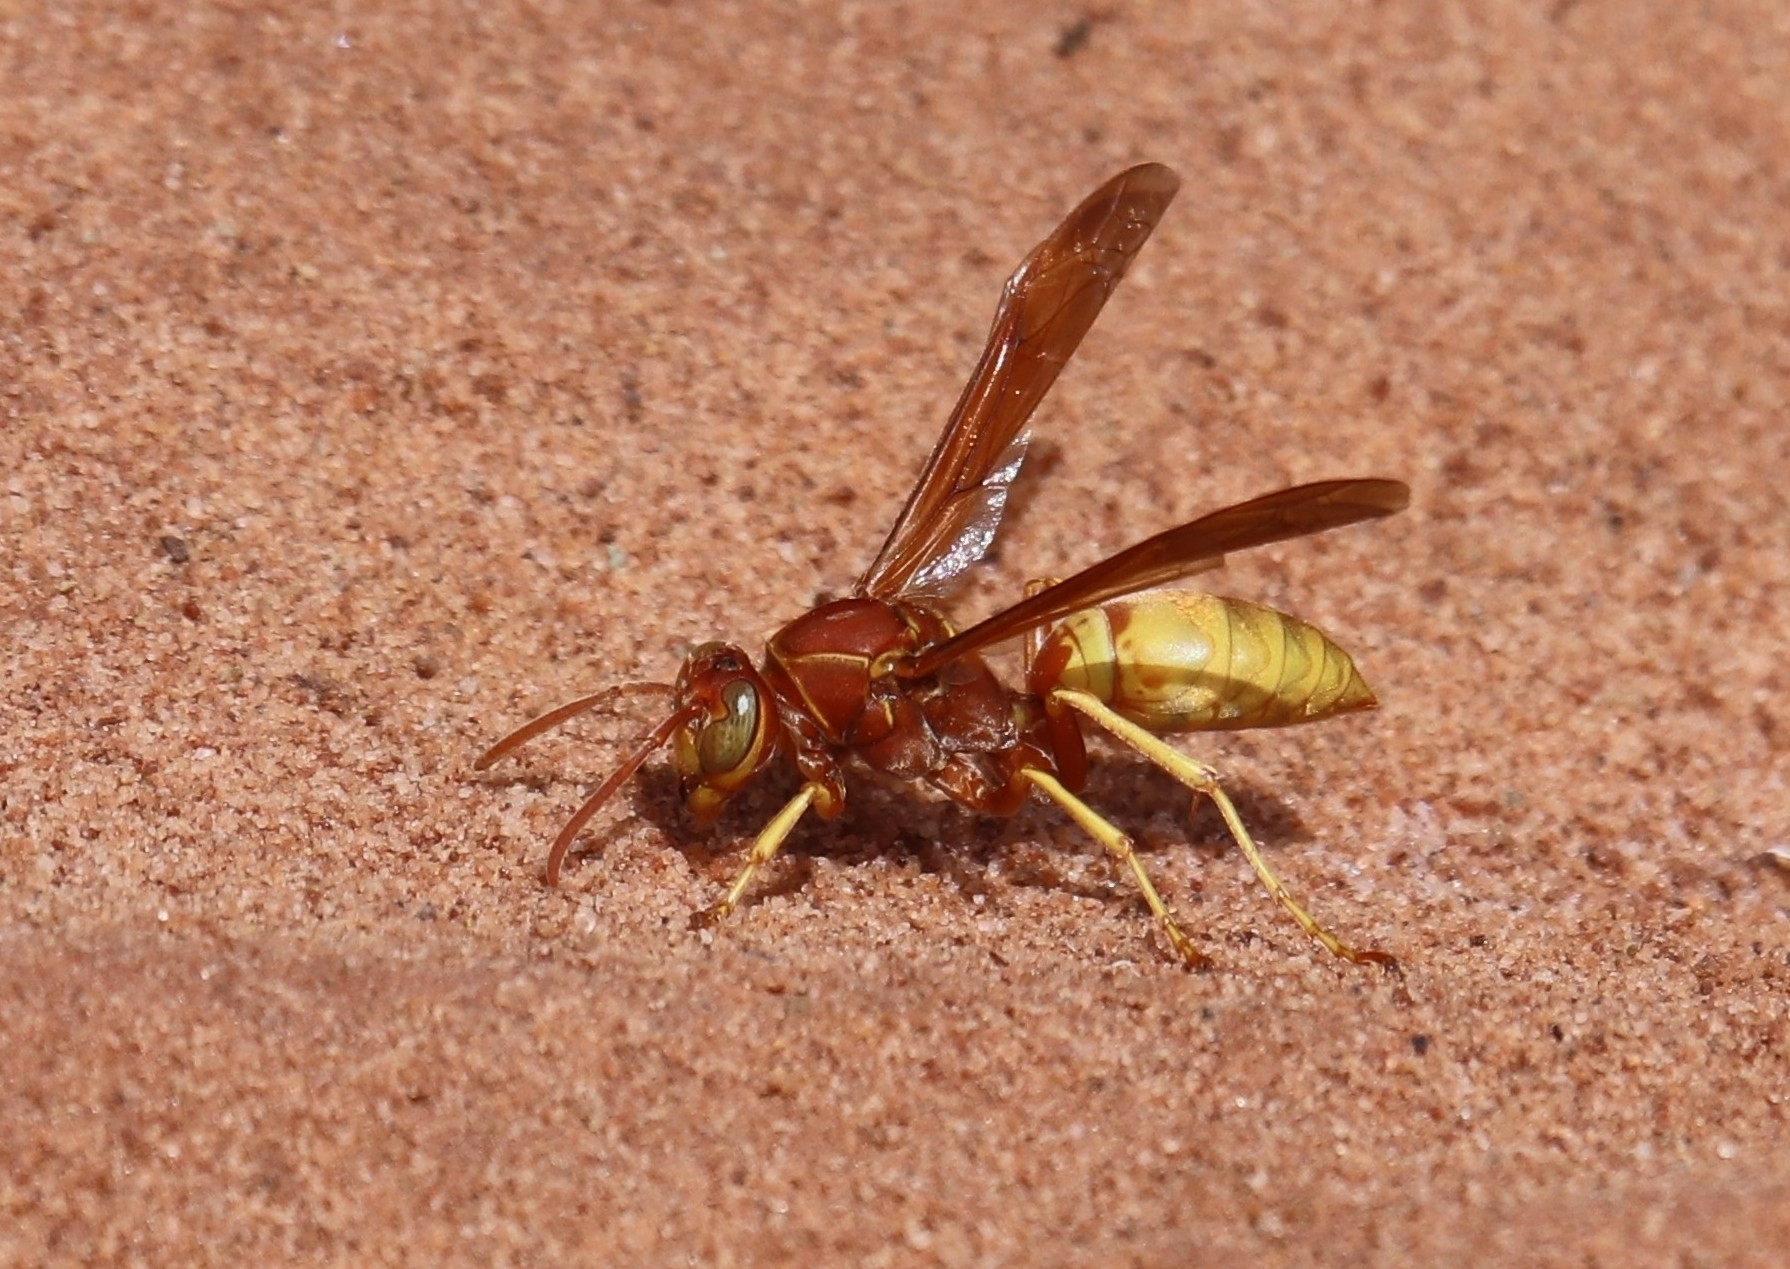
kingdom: Animalia
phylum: Arthropoda
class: Insecta
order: Hymenoptera
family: Eumenidae
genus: Polistes
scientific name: Polistes aurifer
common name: Paper wasp
